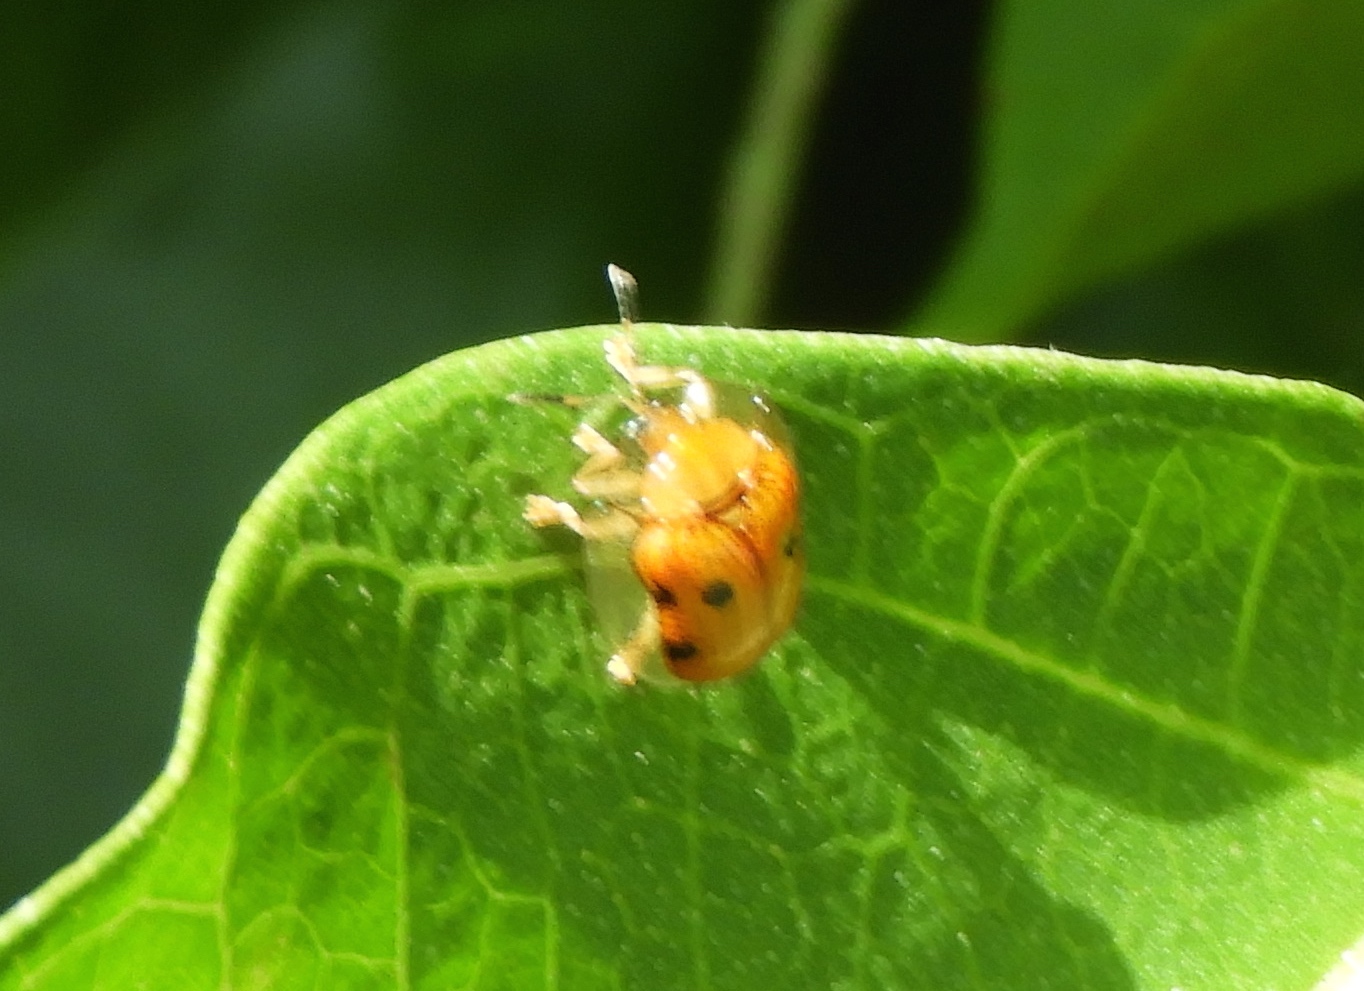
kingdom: Animalia
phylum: Arthropoda
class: Insecta
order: Coleoptera
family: Chrysomelidae
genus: Charidotella
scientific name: Charidotella sexpunctata
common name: Golden tortoise beetle
